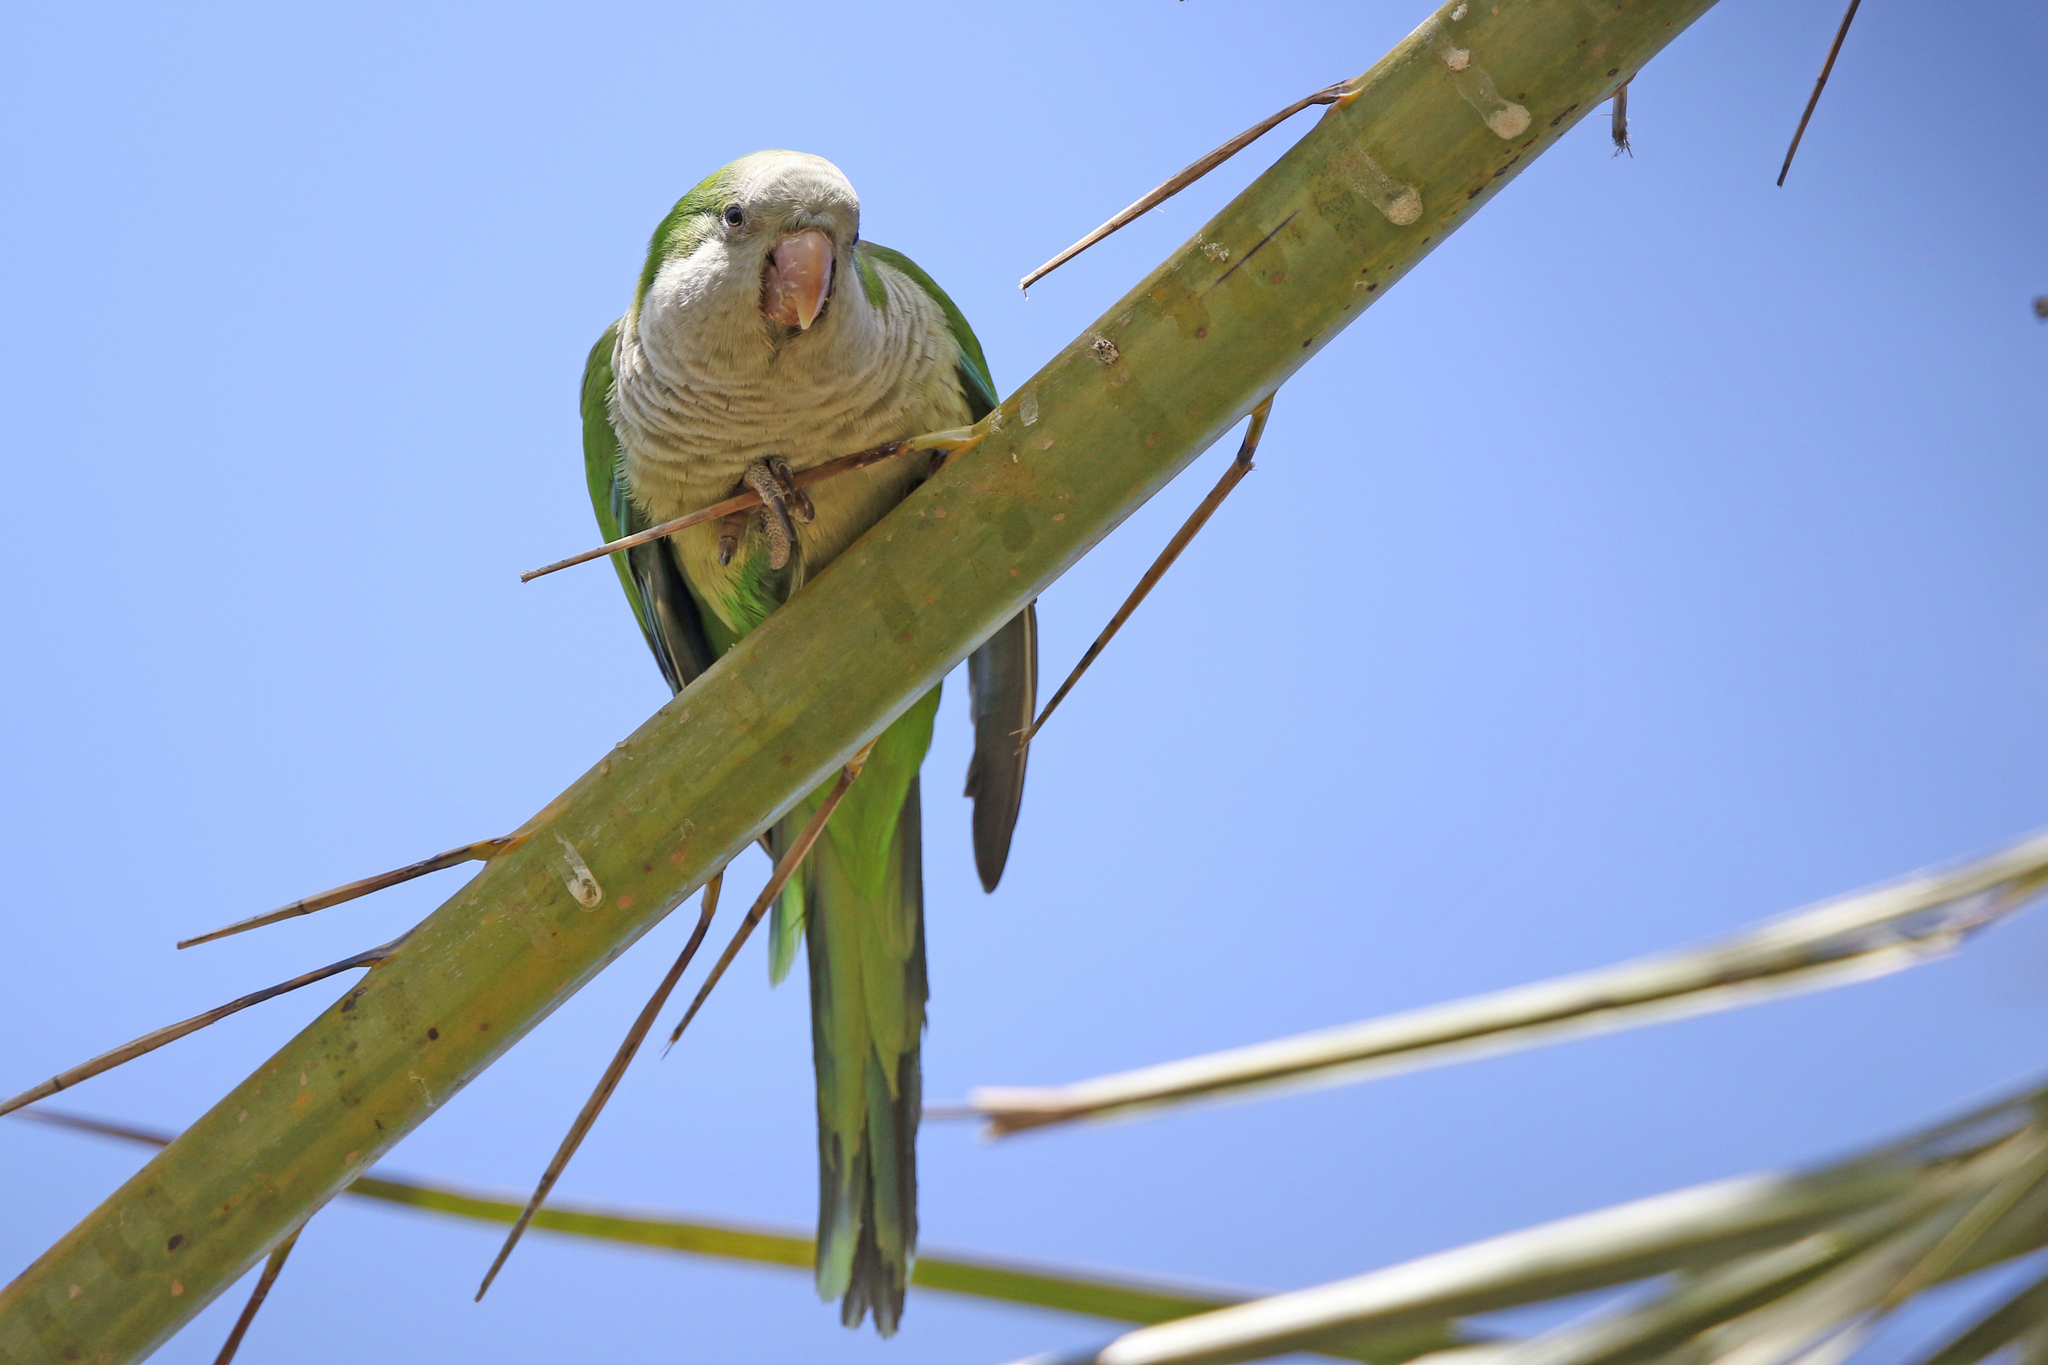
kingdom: Animalia
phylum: Chordata
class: Aves
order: Psittaciformes
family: Psittacidae
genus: Myiopsitta
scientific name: Myiopsitta monachus
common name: Monk parakeet
